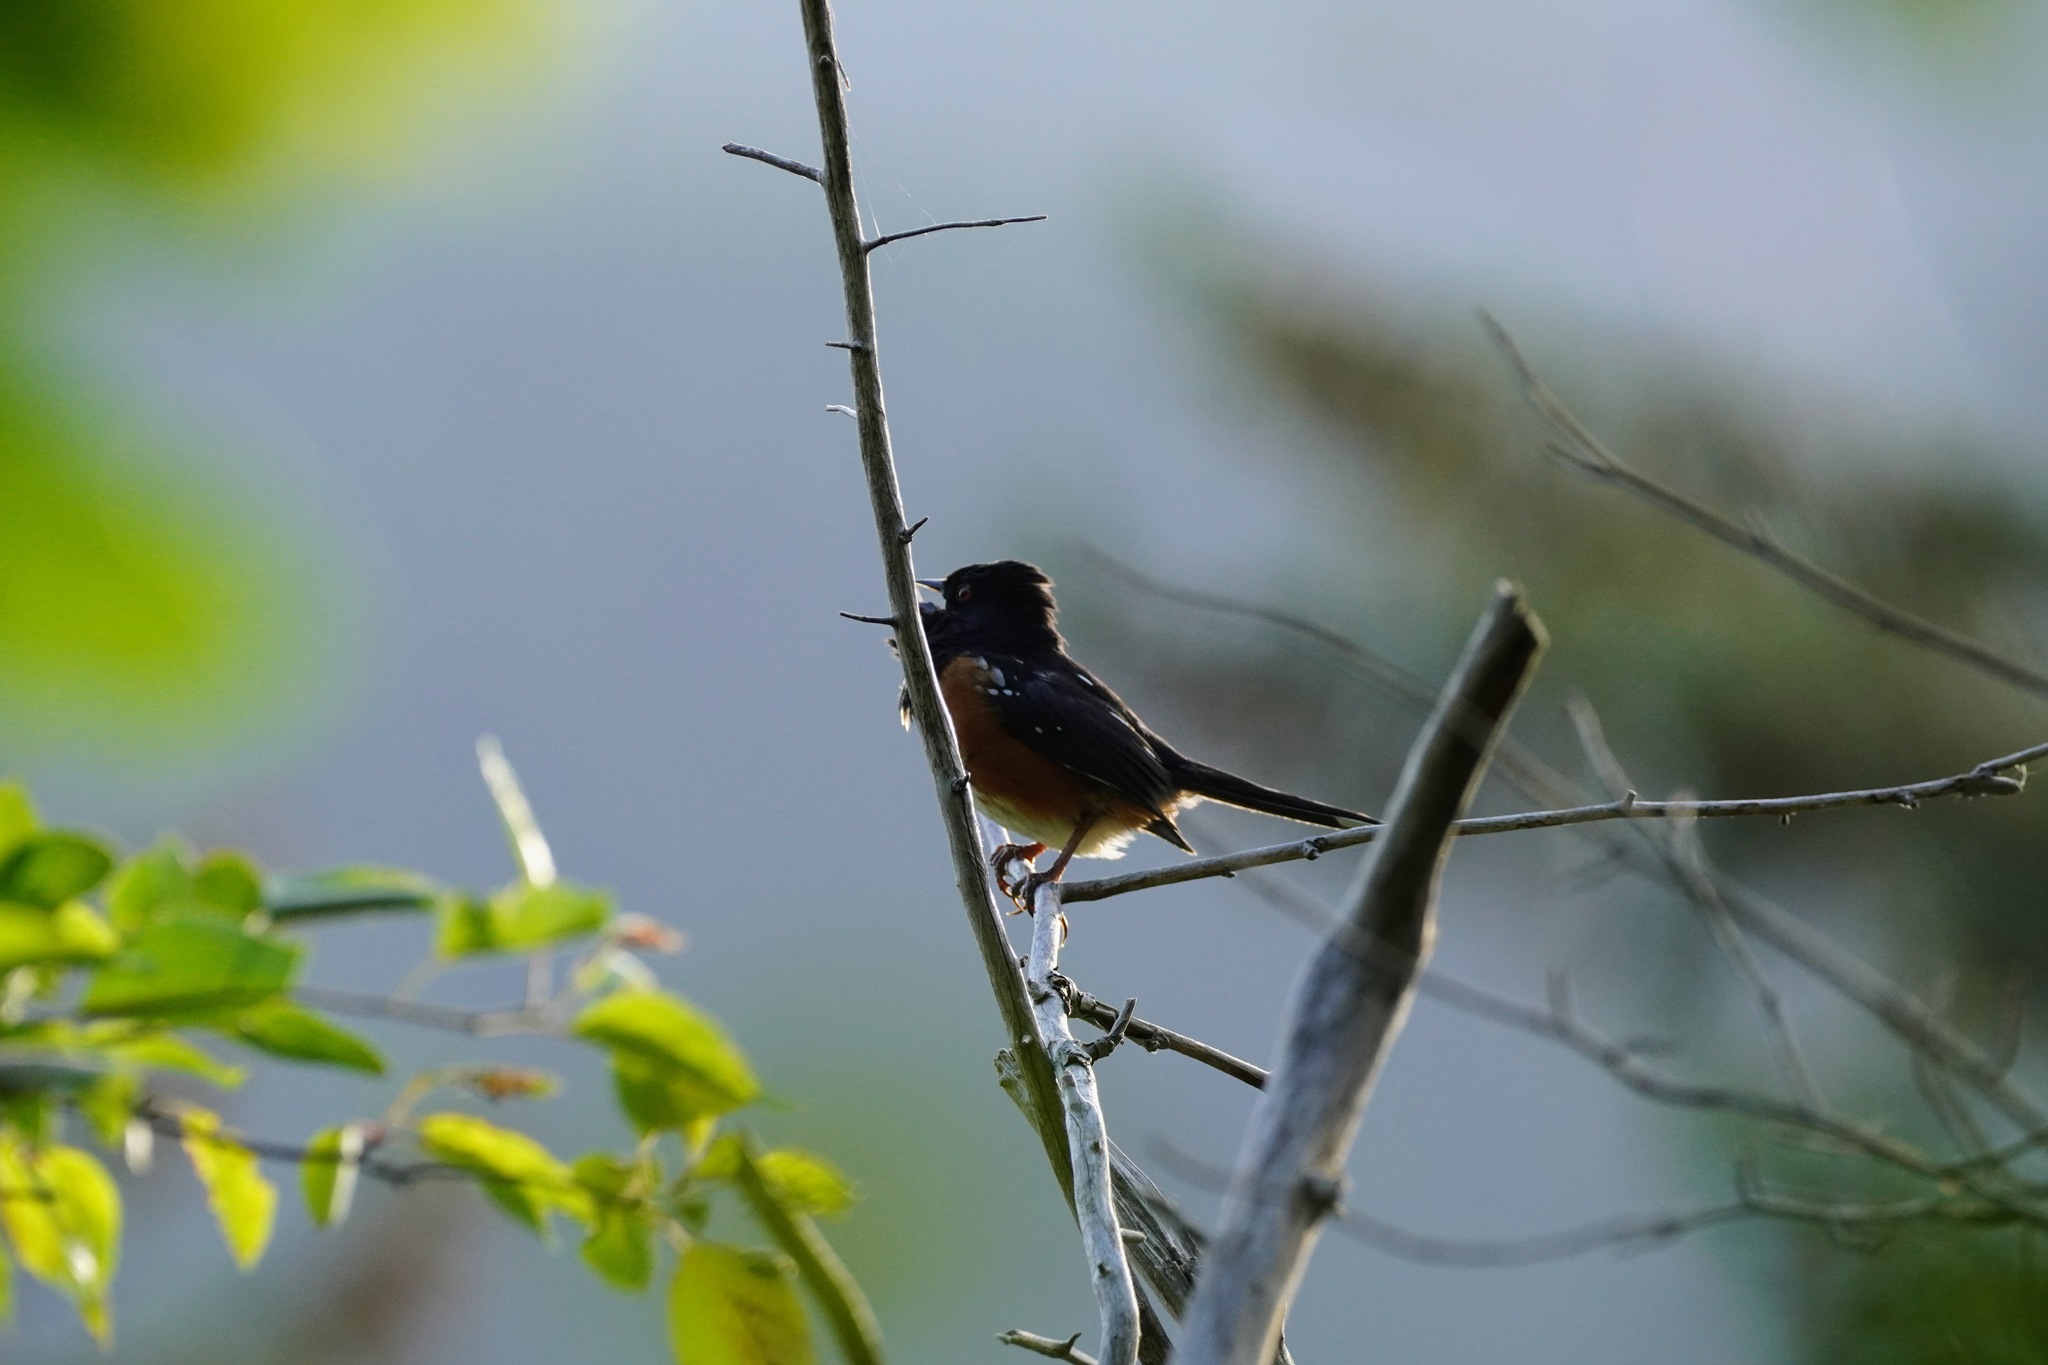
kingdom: Animalia
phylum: Chordata
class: Aves
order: Passeriformes
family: Passerellidae
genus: Pipilo
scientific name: Pipilo maculatus
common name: Spotted towhee
